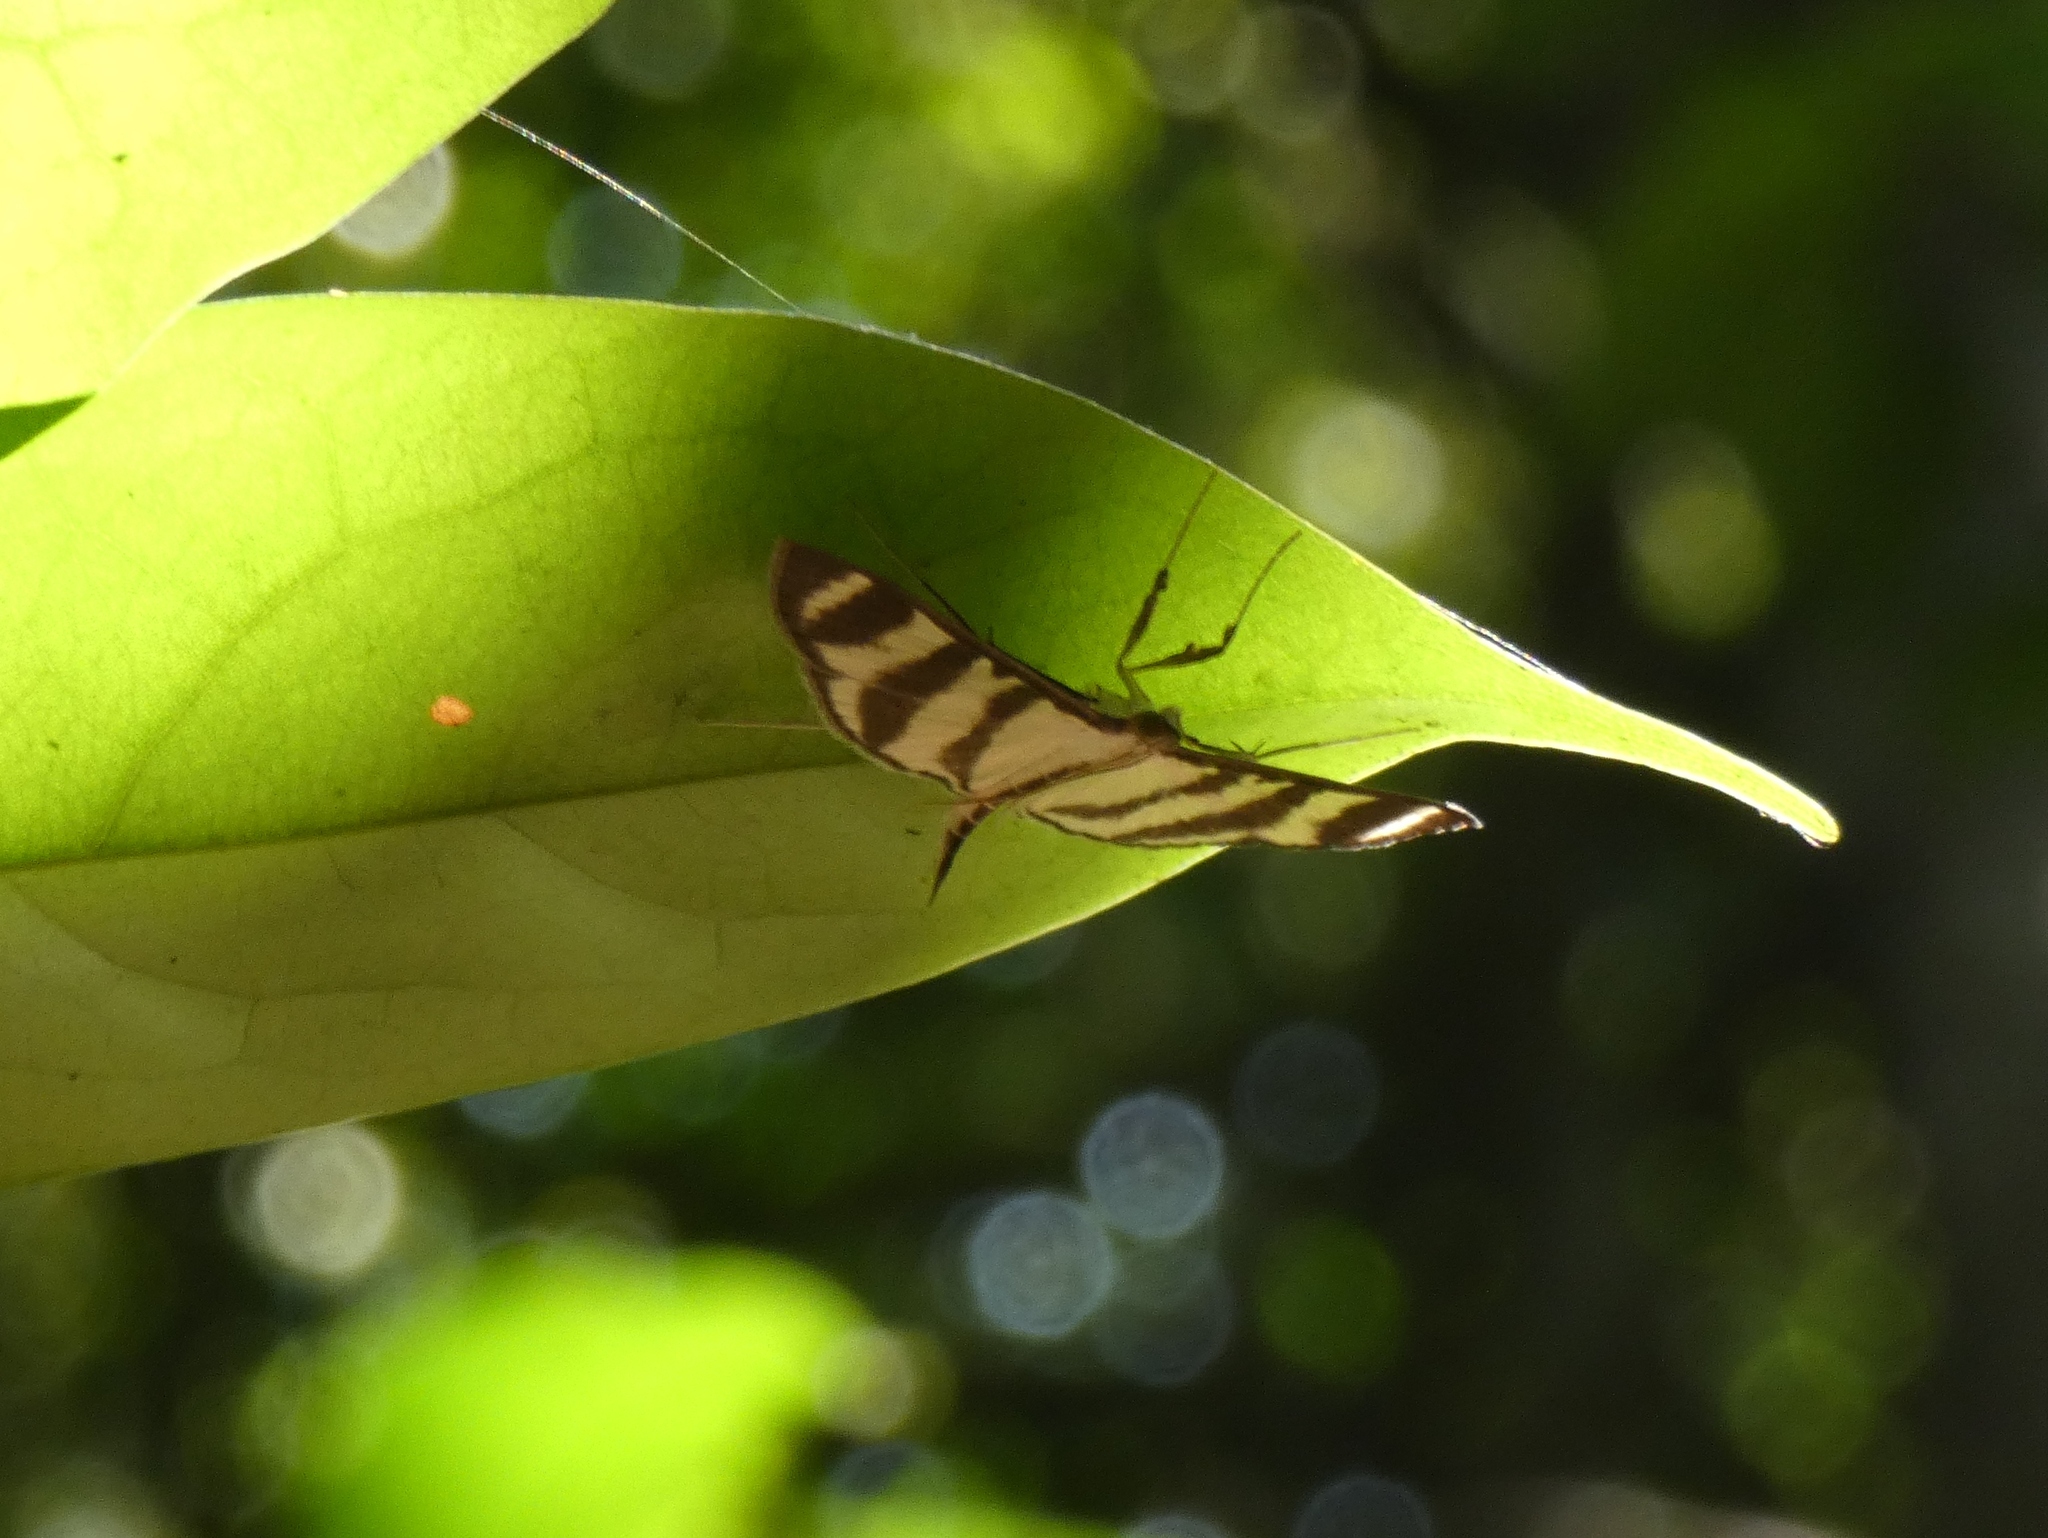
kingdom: Animalia
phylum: Arthropoda
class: Insecta
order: Lepidoptera
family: Crambidae
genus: Zebronia
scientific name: Zebronia phenice
